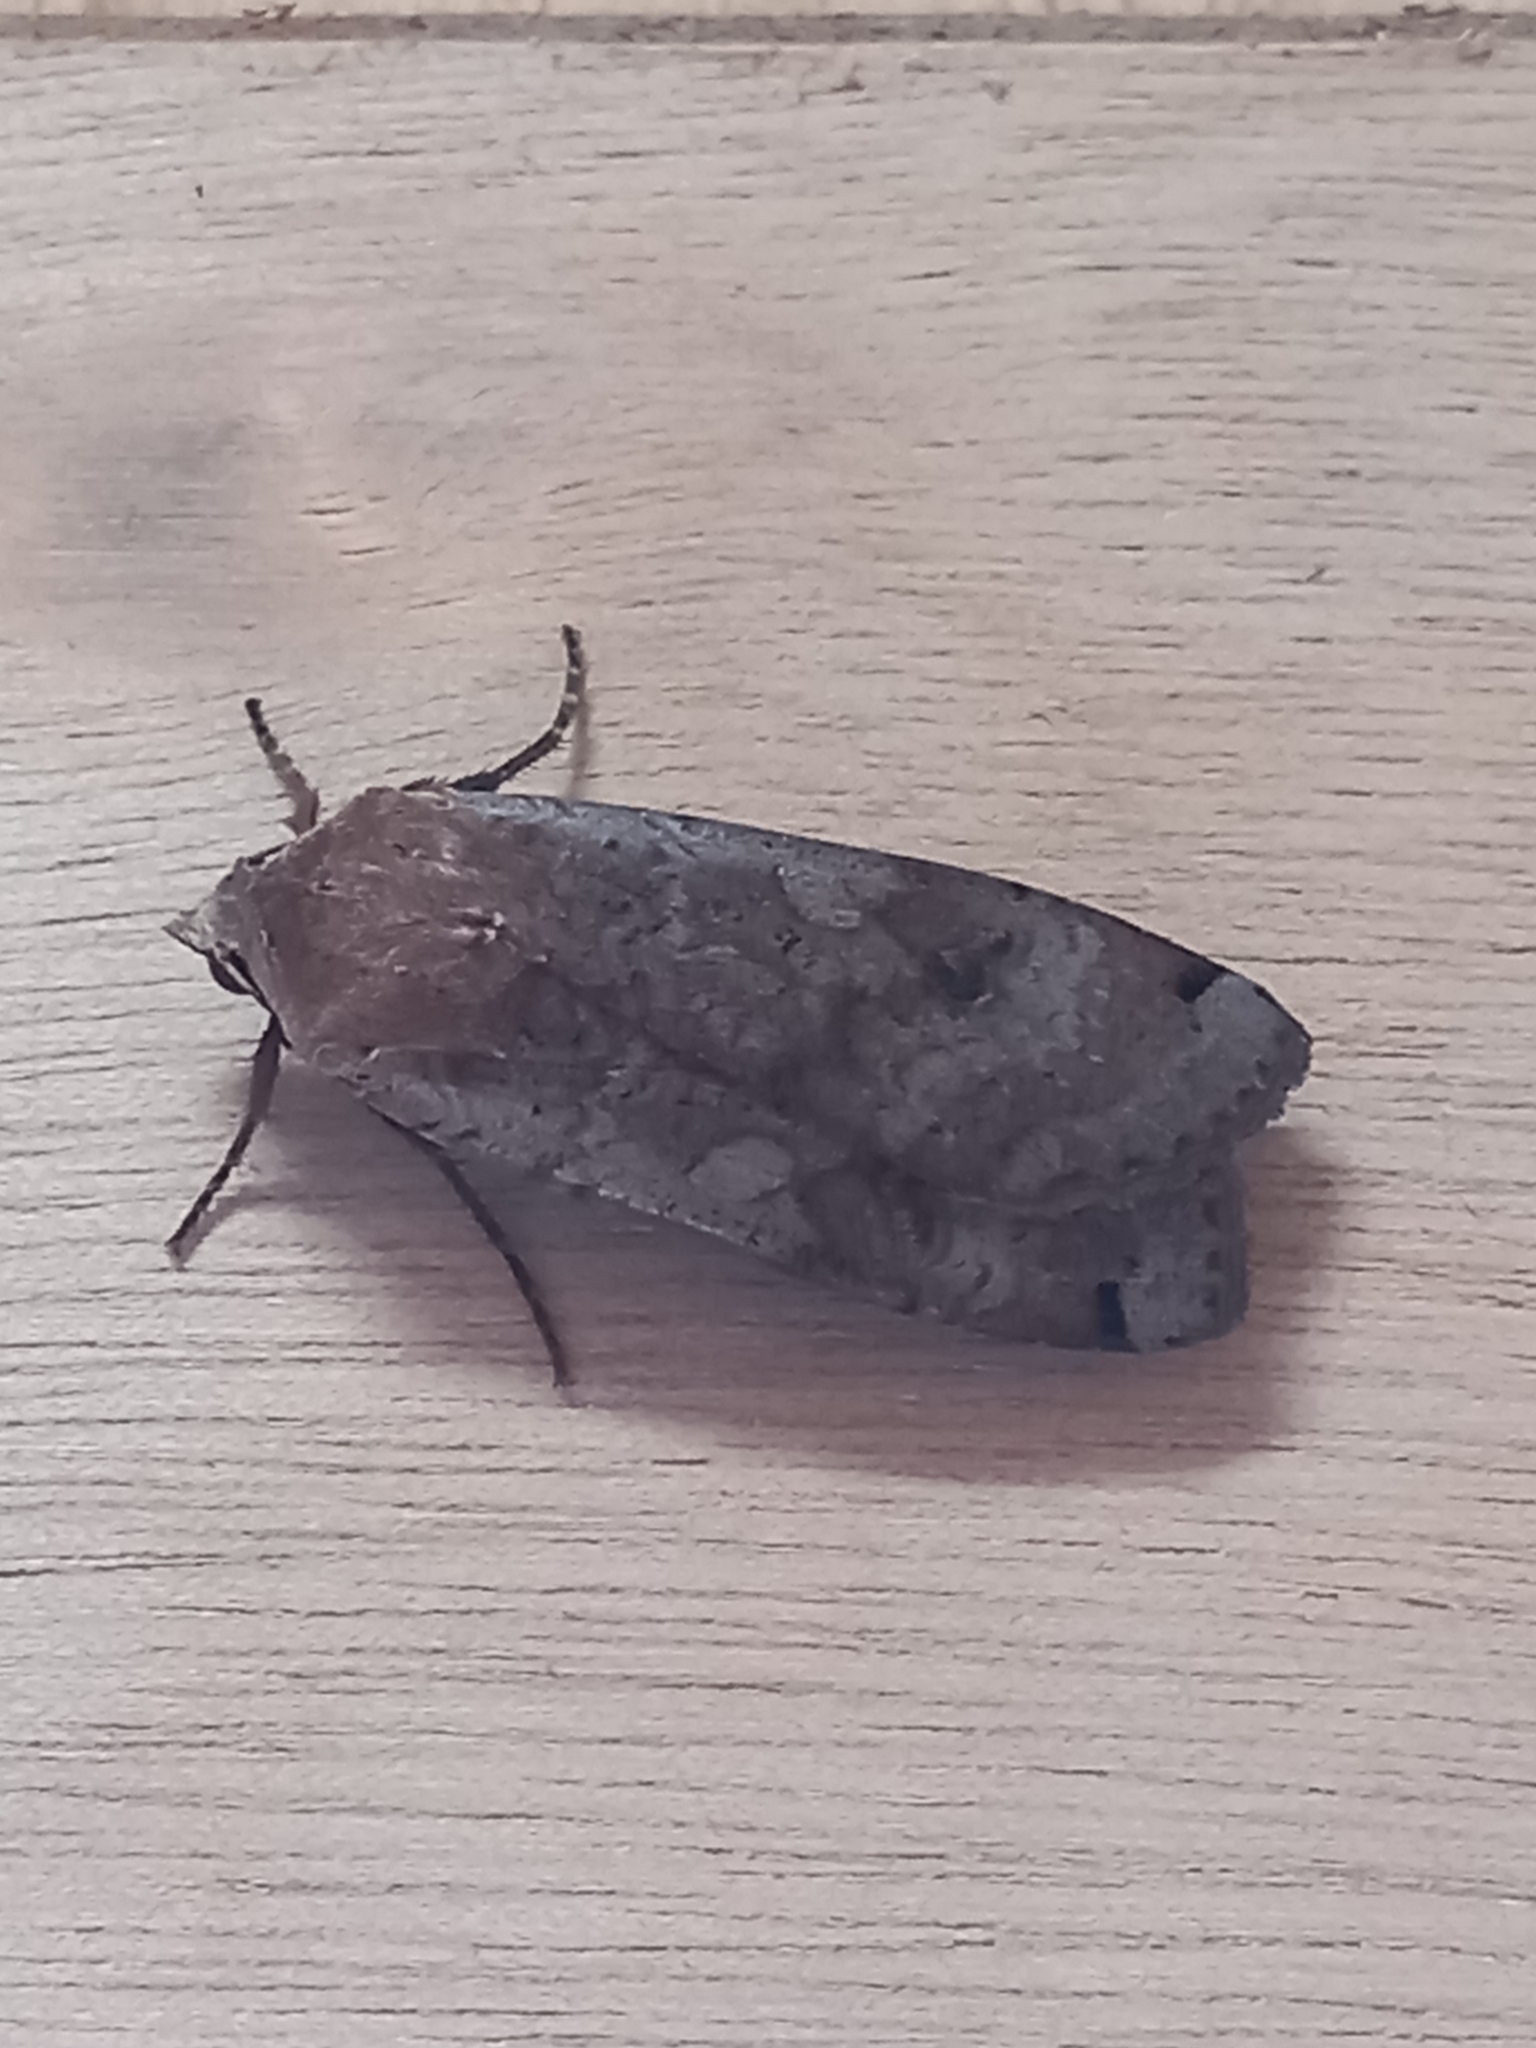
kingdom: Animalia
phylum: Arthropoda
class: Insecta
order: Lepidoptera
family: Noctuidae
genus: Noctua
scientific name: Noctua pronuba
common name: Large yellow underwing
